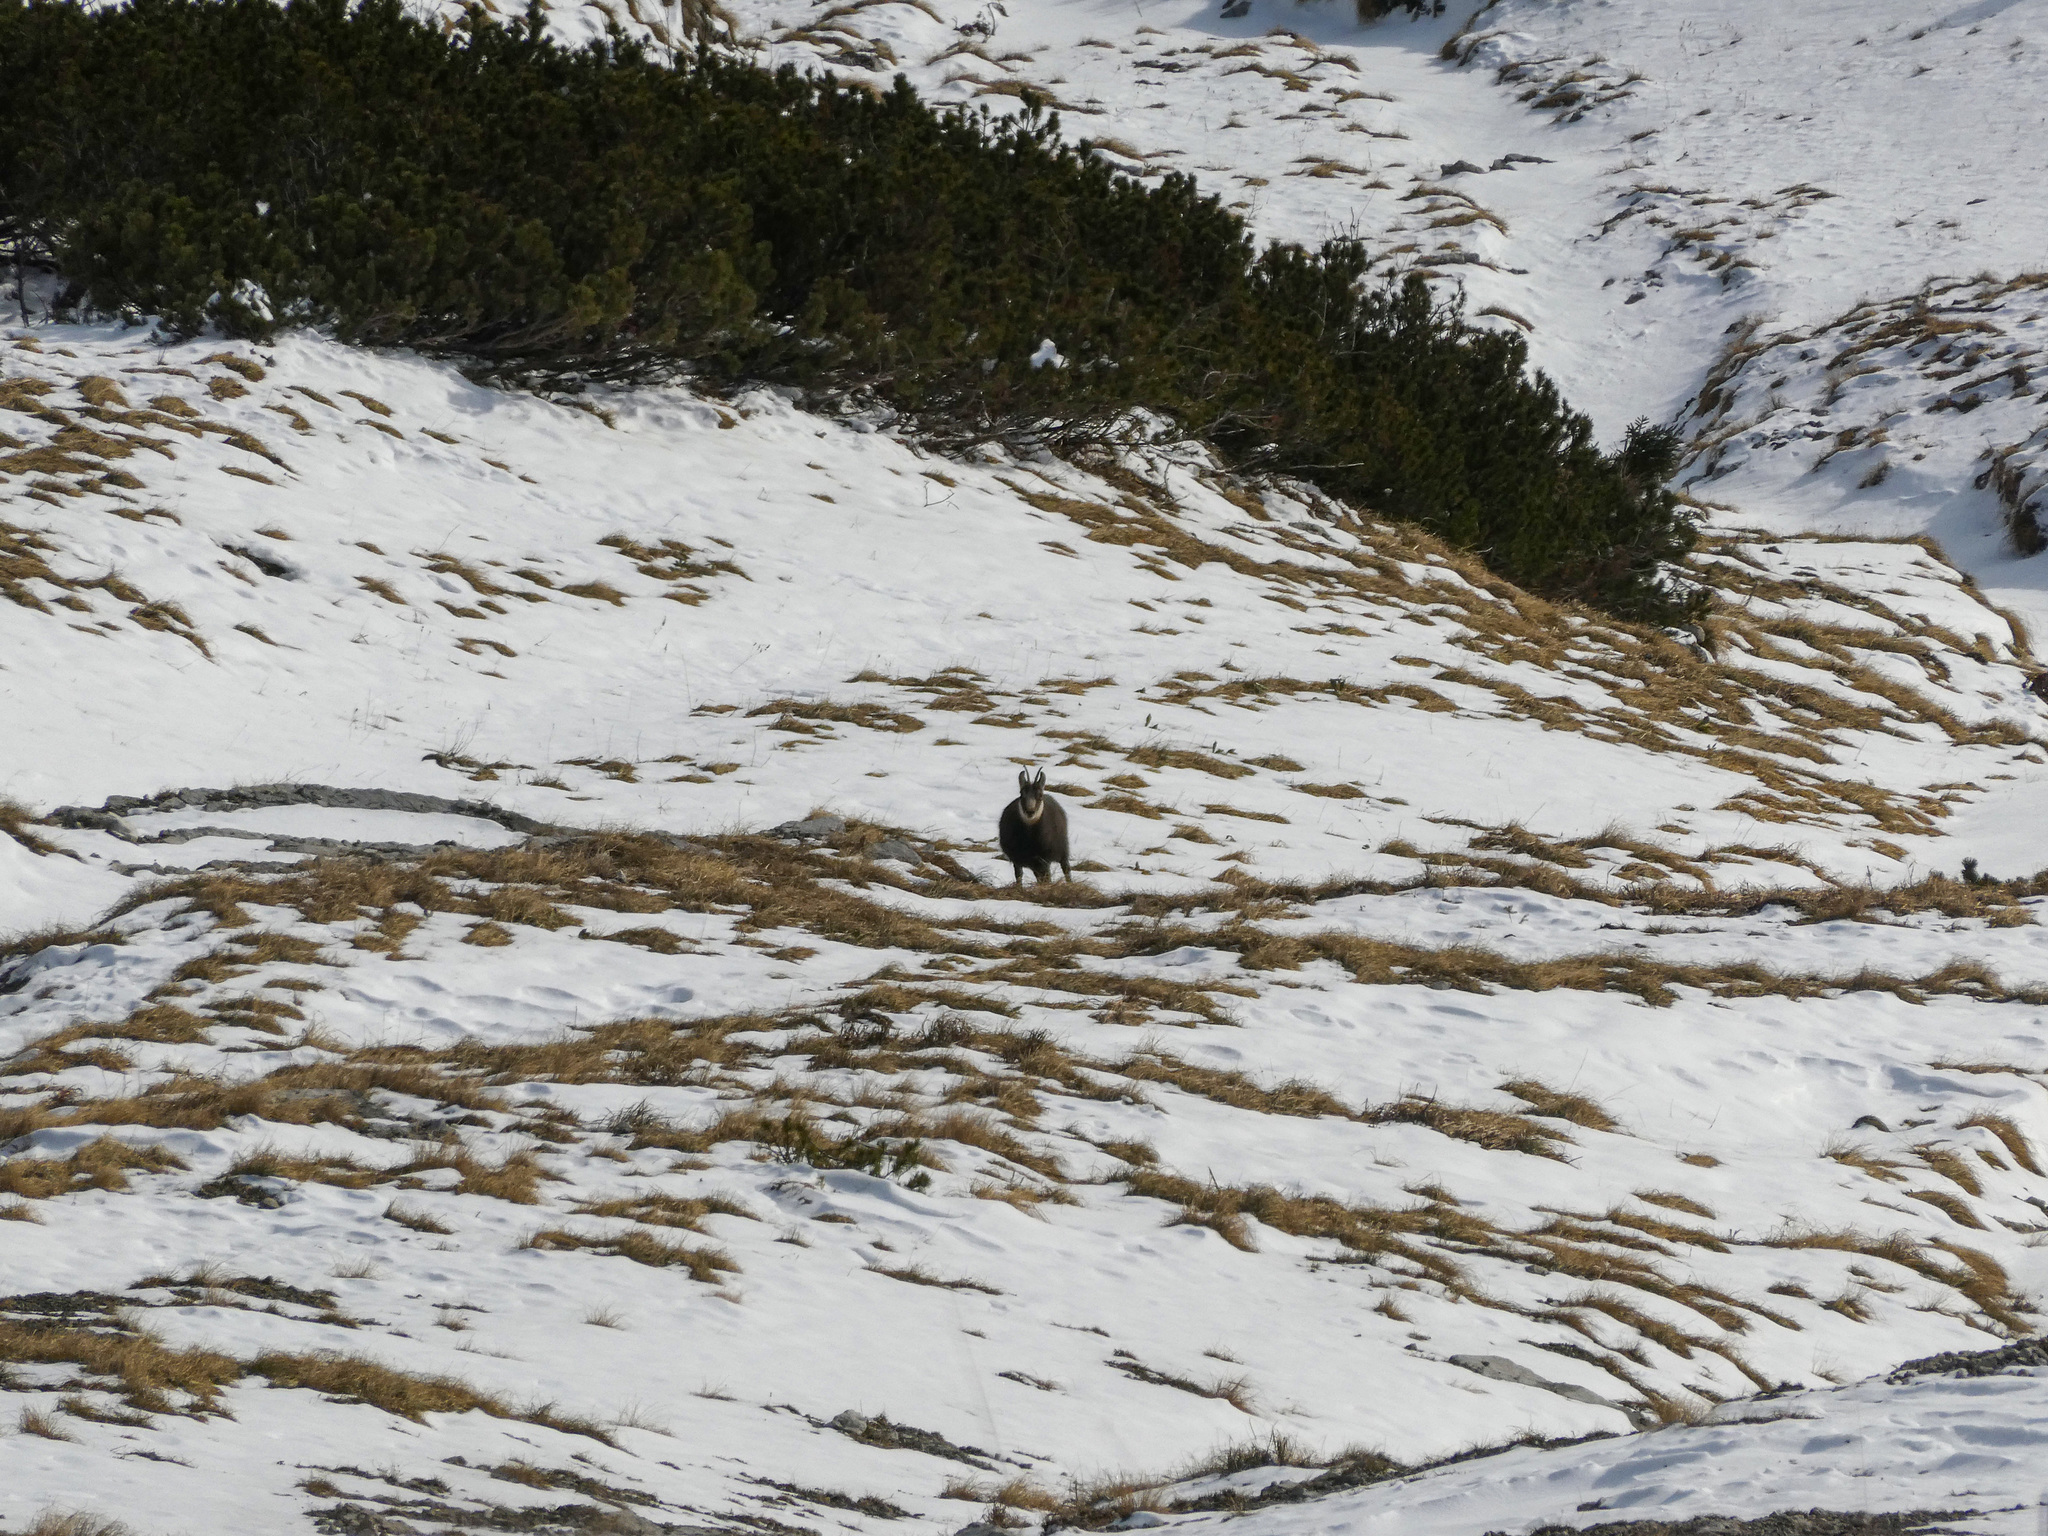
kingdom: Animalia
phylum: Chordata
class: Mammalia
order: Artiodactyla
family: Bovidae
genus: Rupicapra
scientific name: Rupicapra rupicapra
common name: Chamois
